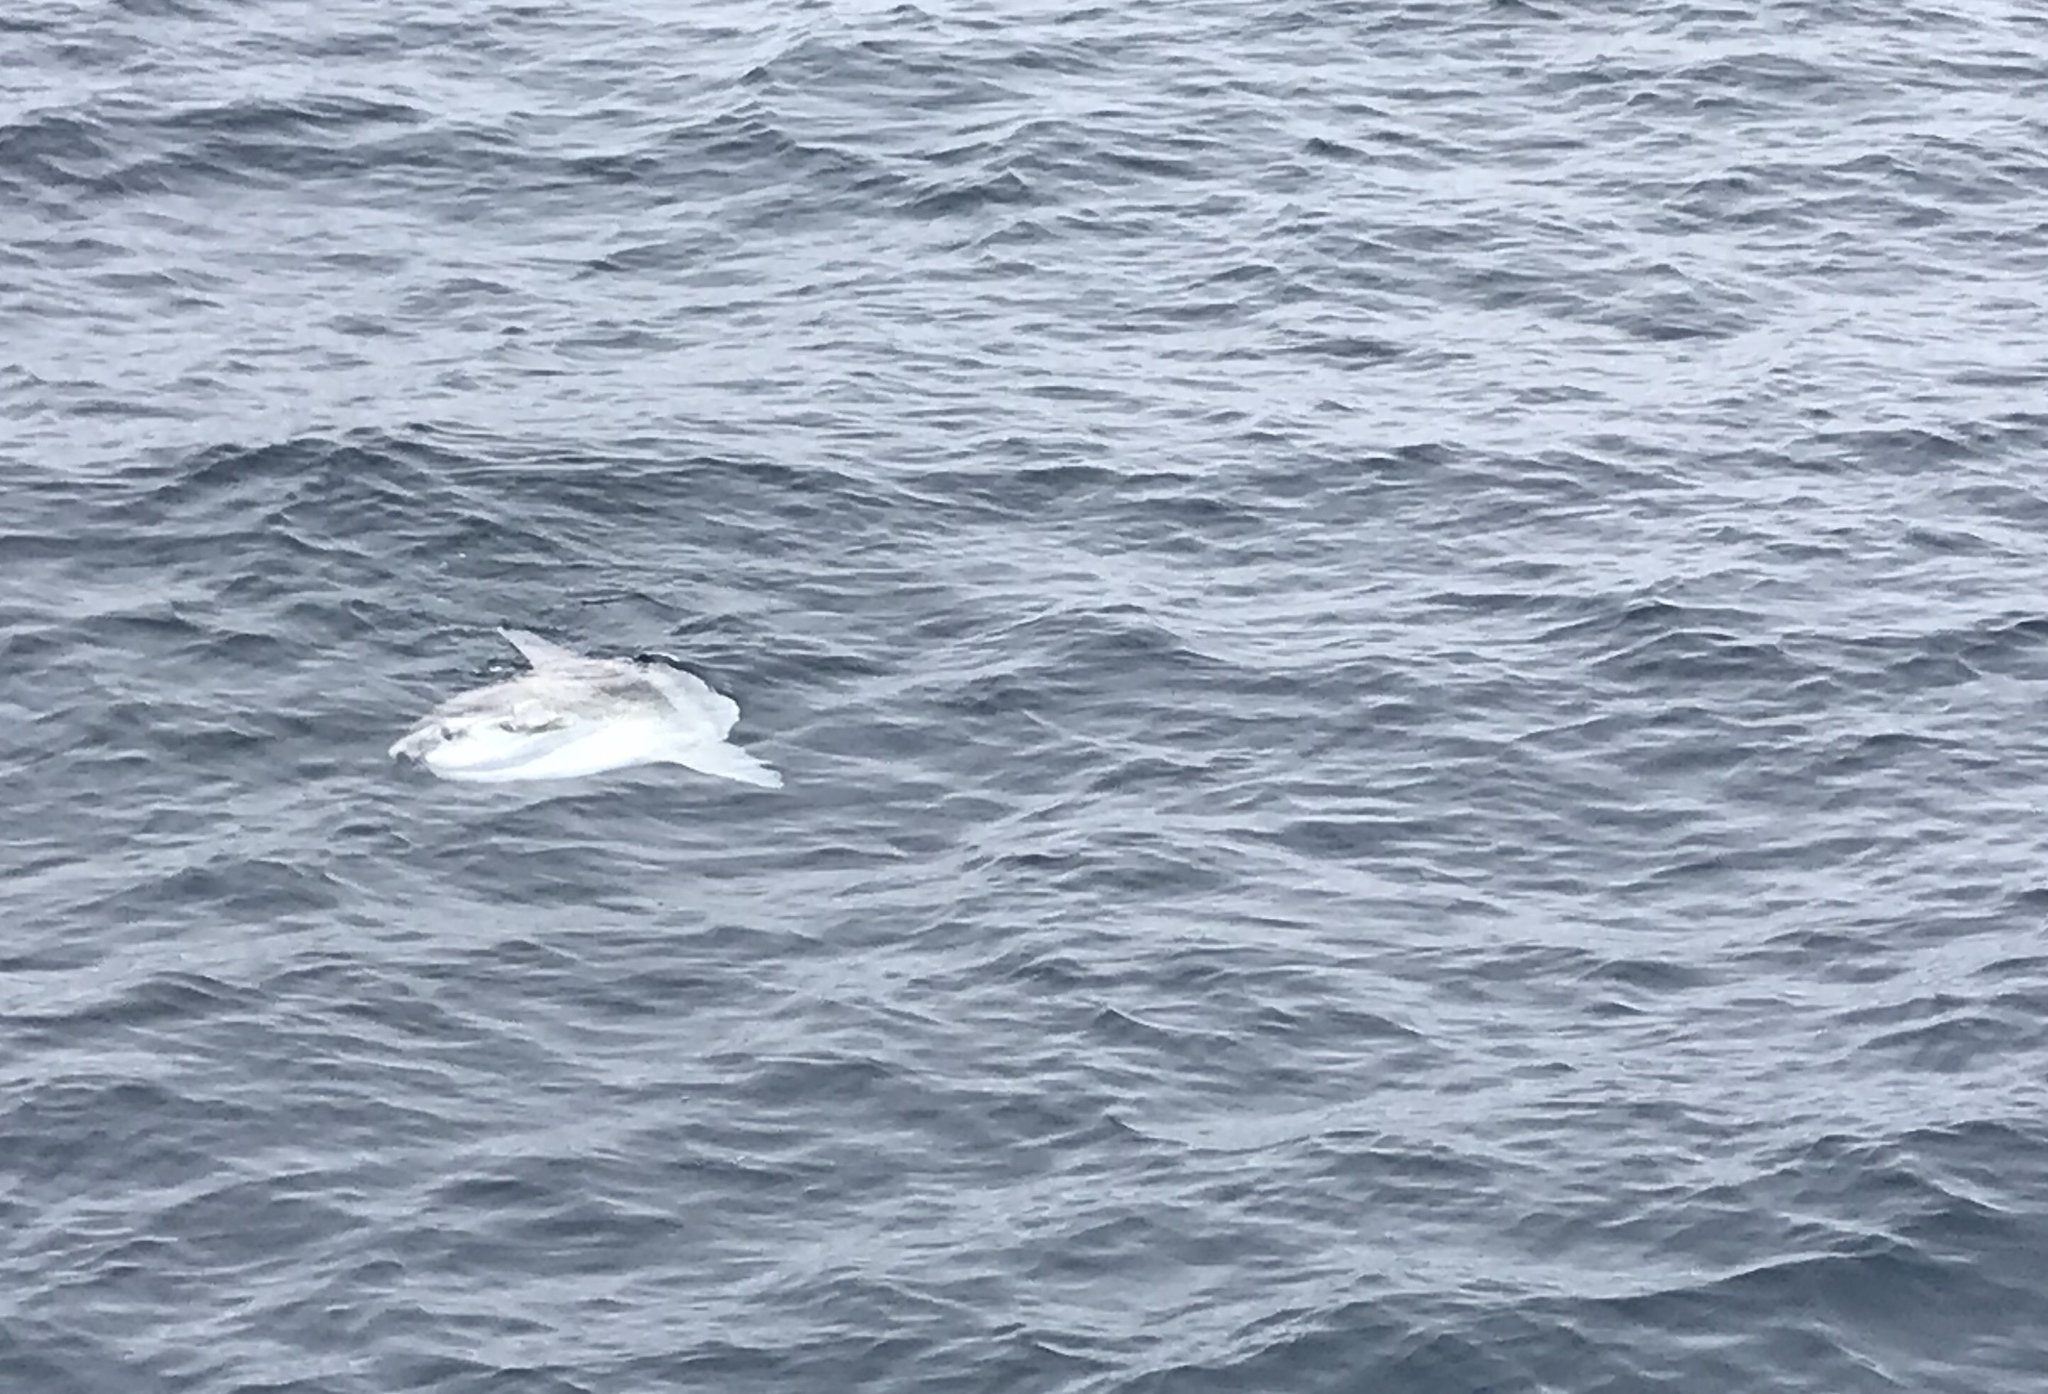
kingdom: Animalia
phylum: Chordata
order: Tetraodontiformes
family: Molidae
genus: Mola
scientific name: Mola mola
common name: Ocean sunfish
